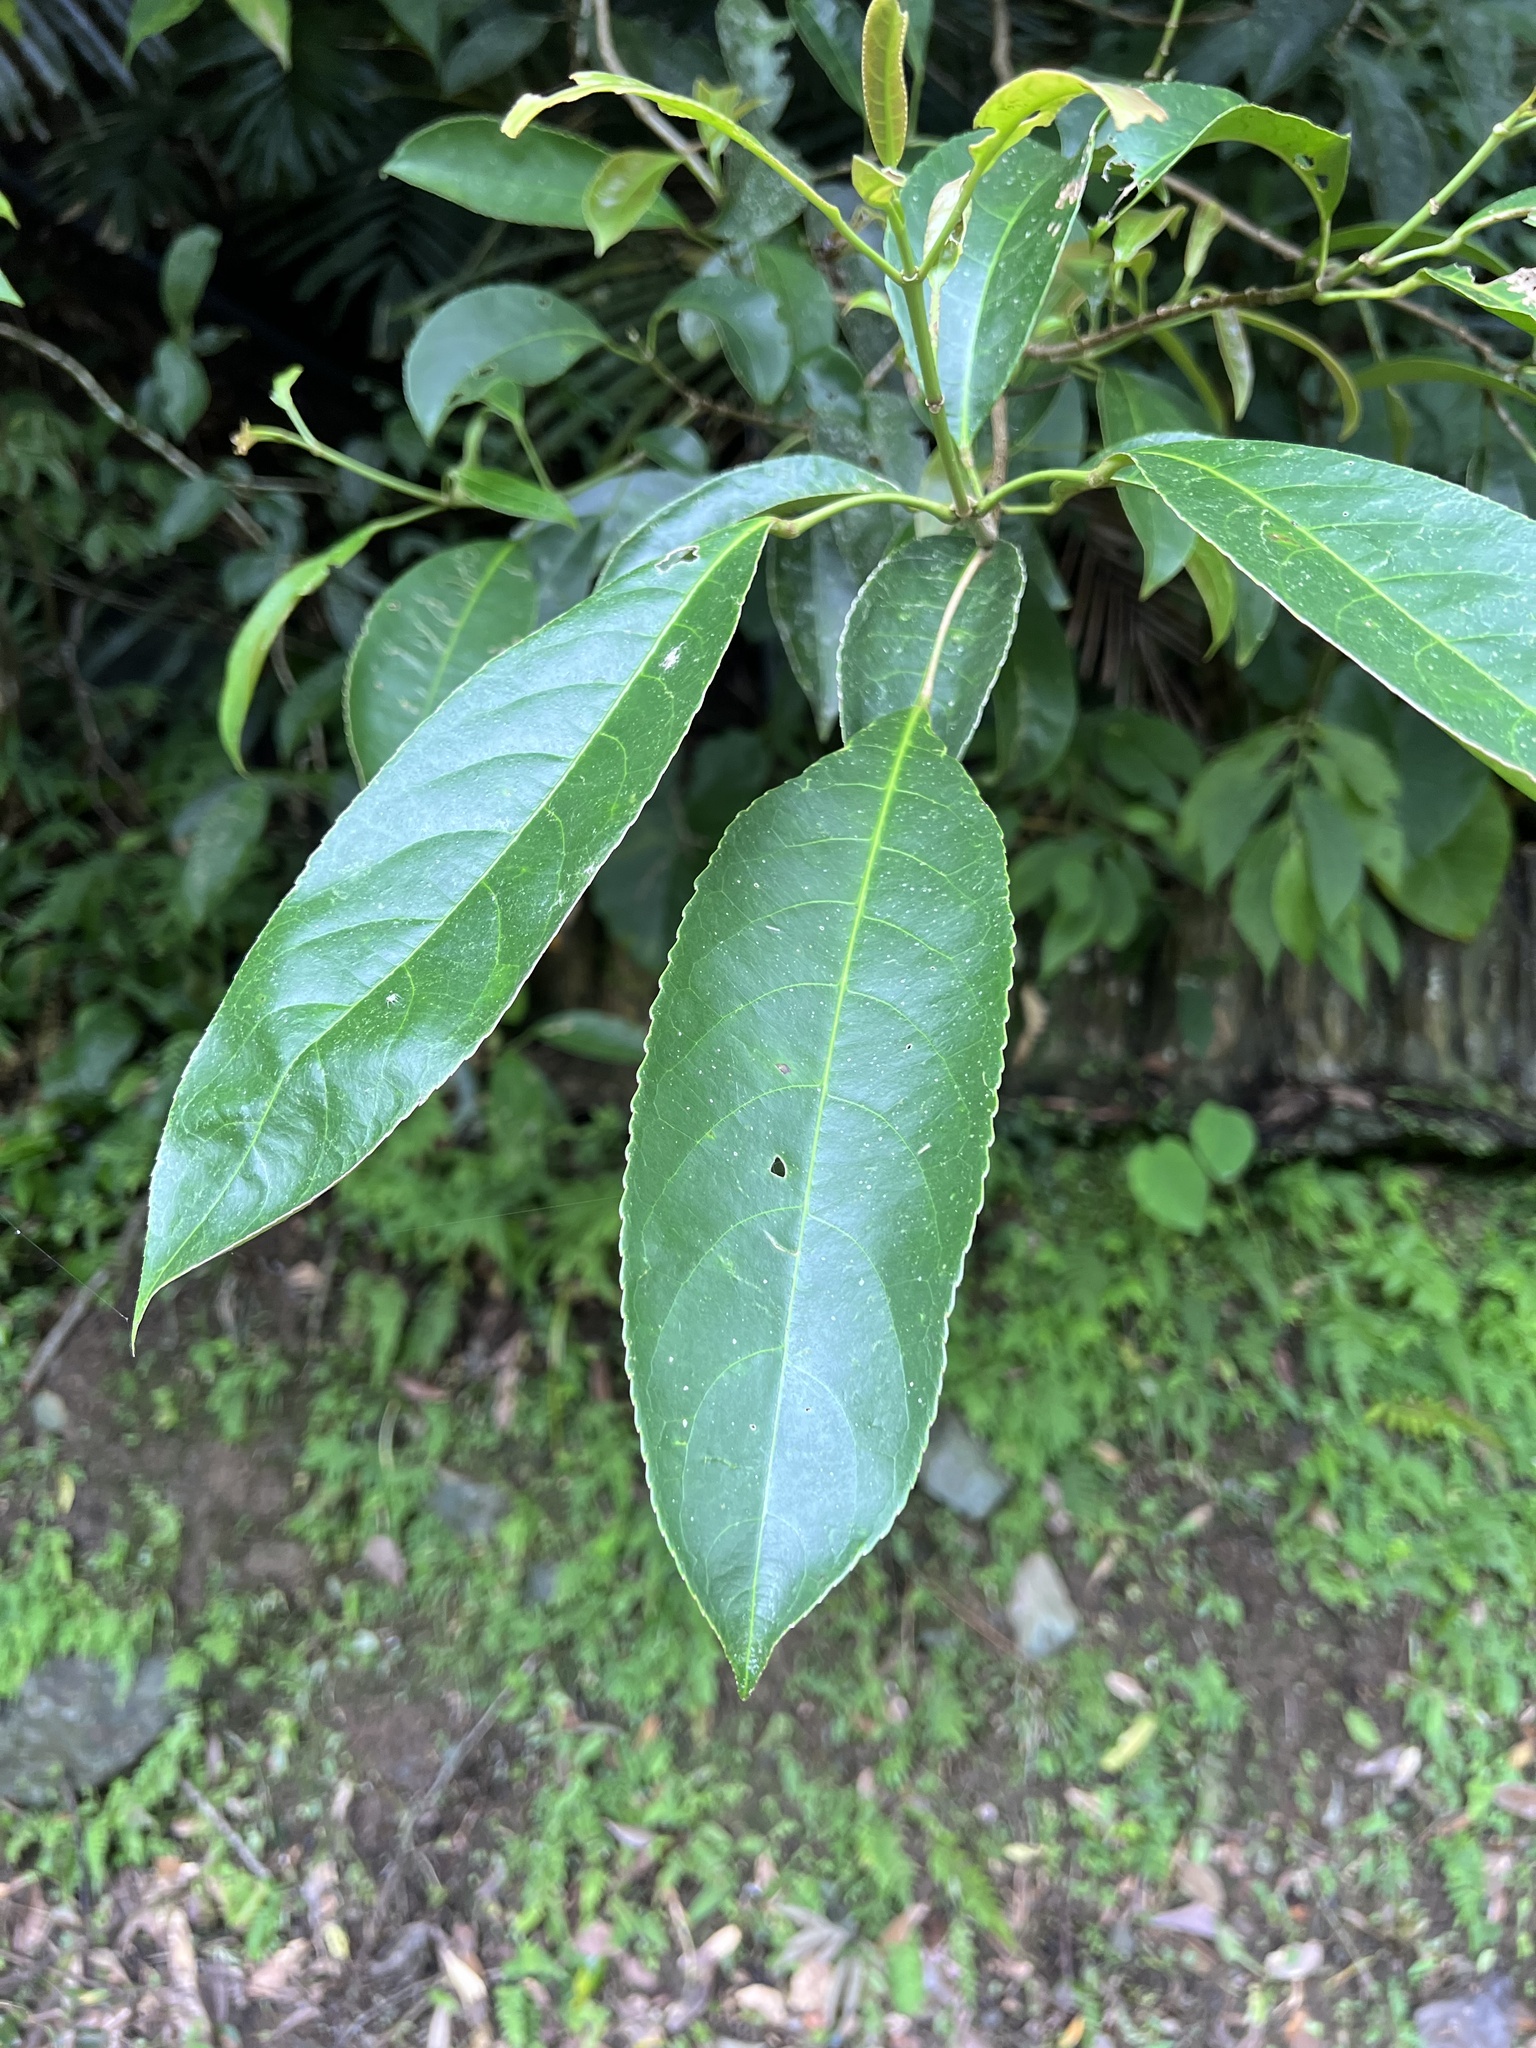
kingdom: Plantae
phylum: Tracheophyta
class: Magnoliopsida
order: Crossosomatales
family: Staphyleaceae
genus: Turpinia
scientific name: Turpinia formosana
